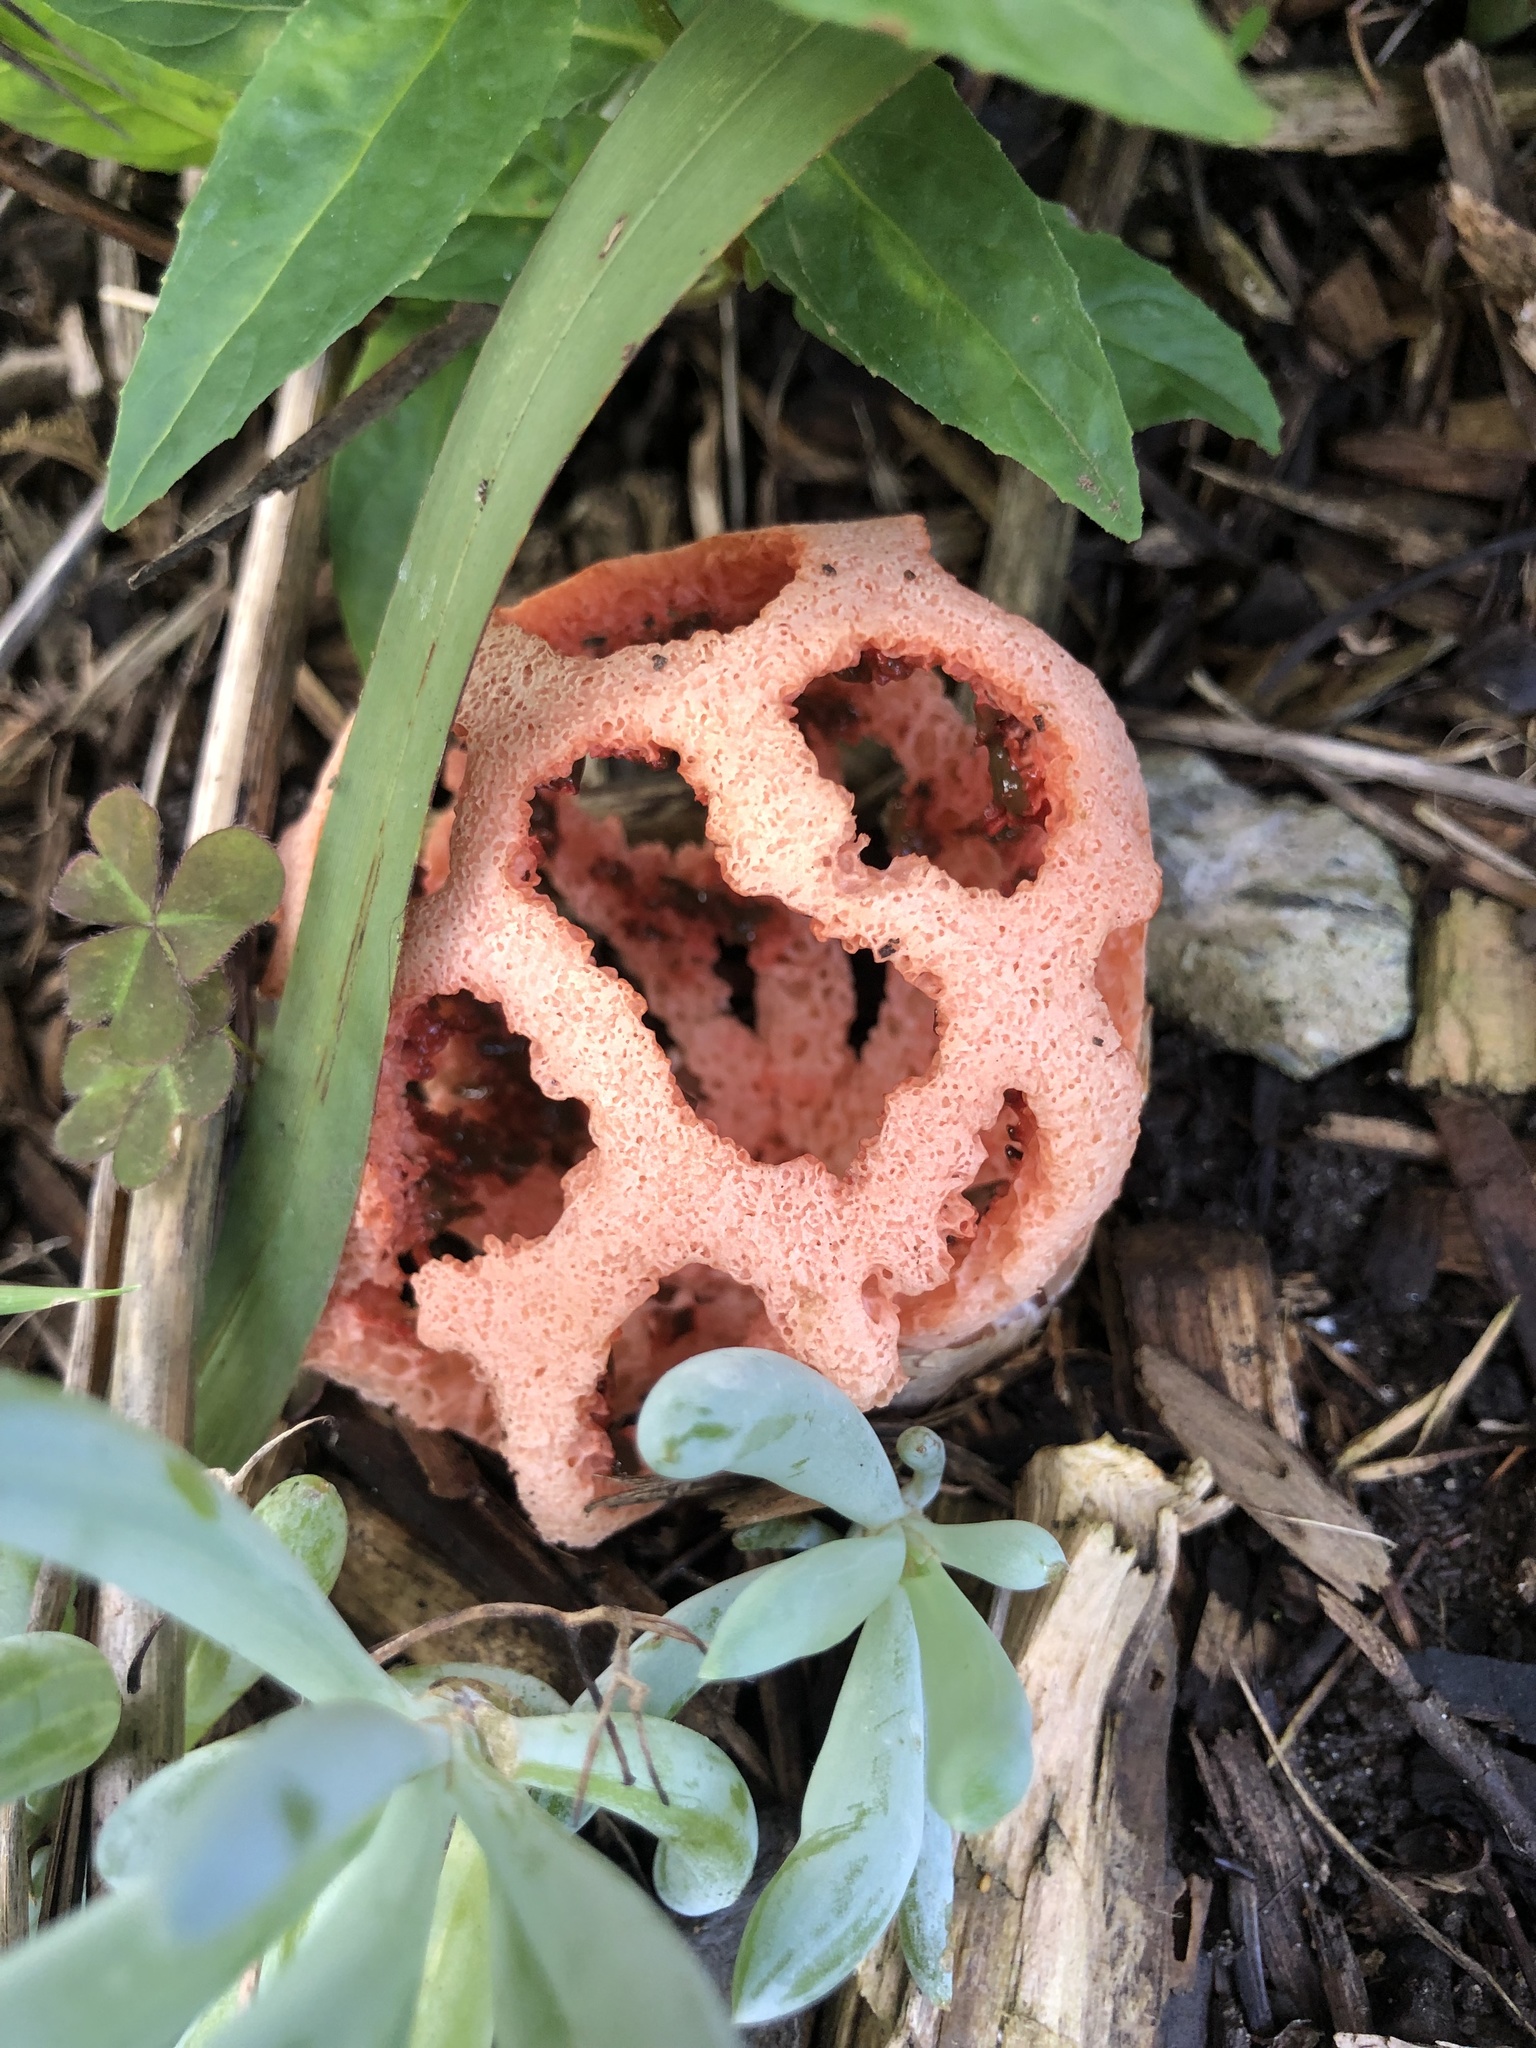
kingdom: Fungi
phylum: Basidiomycota
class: Agaricomycetes
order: Phallales
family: Phallaceae
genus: Clathrus
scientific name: Clathrus ruber
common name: Red cage
